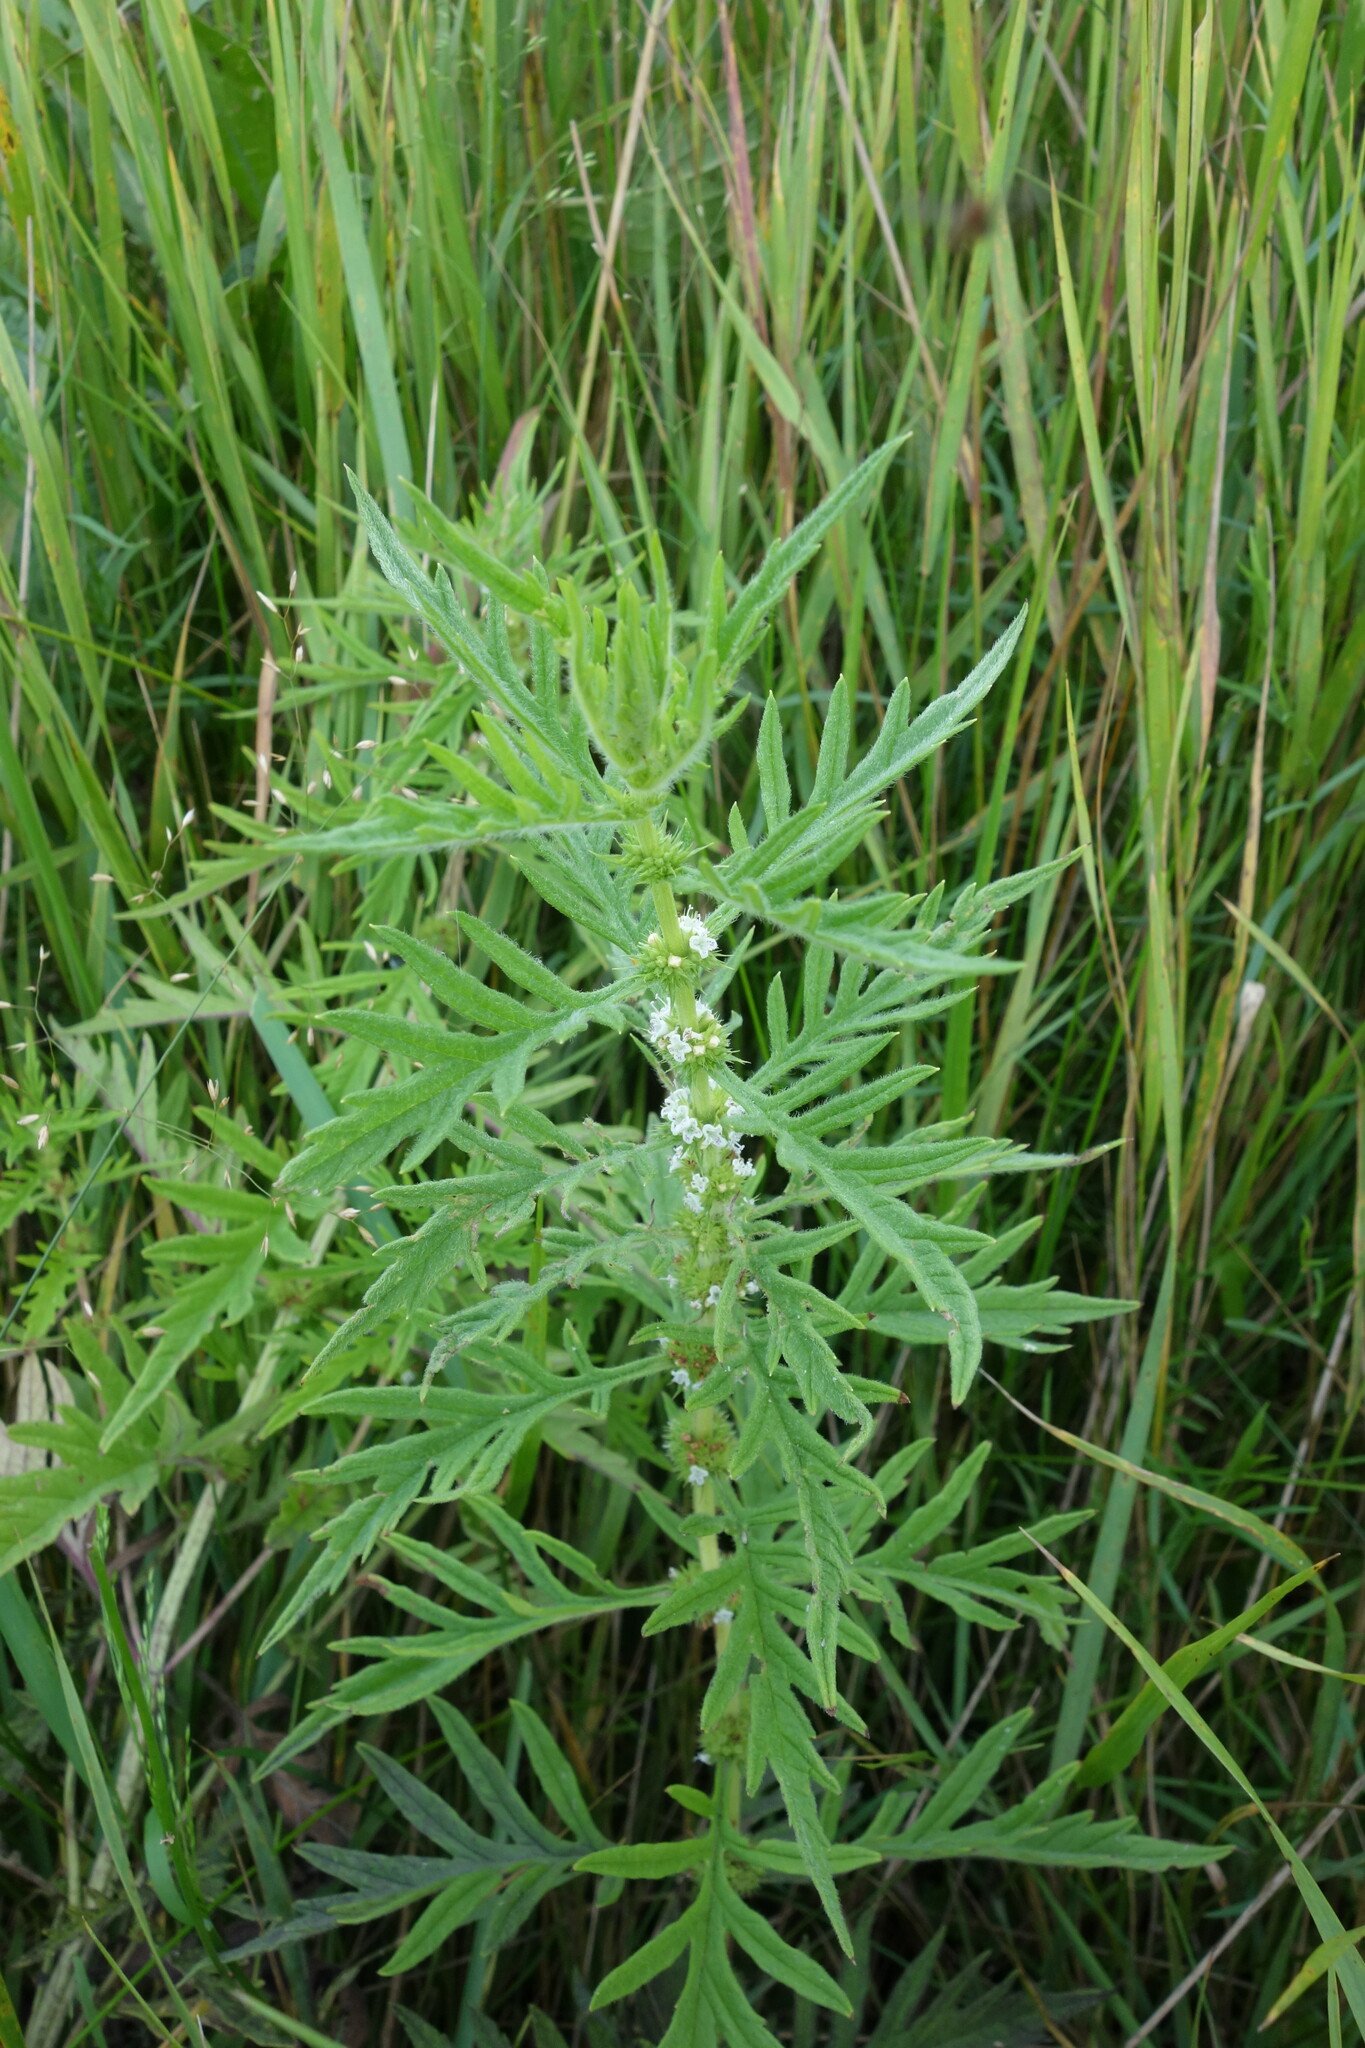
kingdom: Plantae
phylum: Tracheophyta
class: Magnoliopsida
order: Lamiales
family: Lamiaceae
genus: Lycopus
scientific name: Lycopus exaltatus
